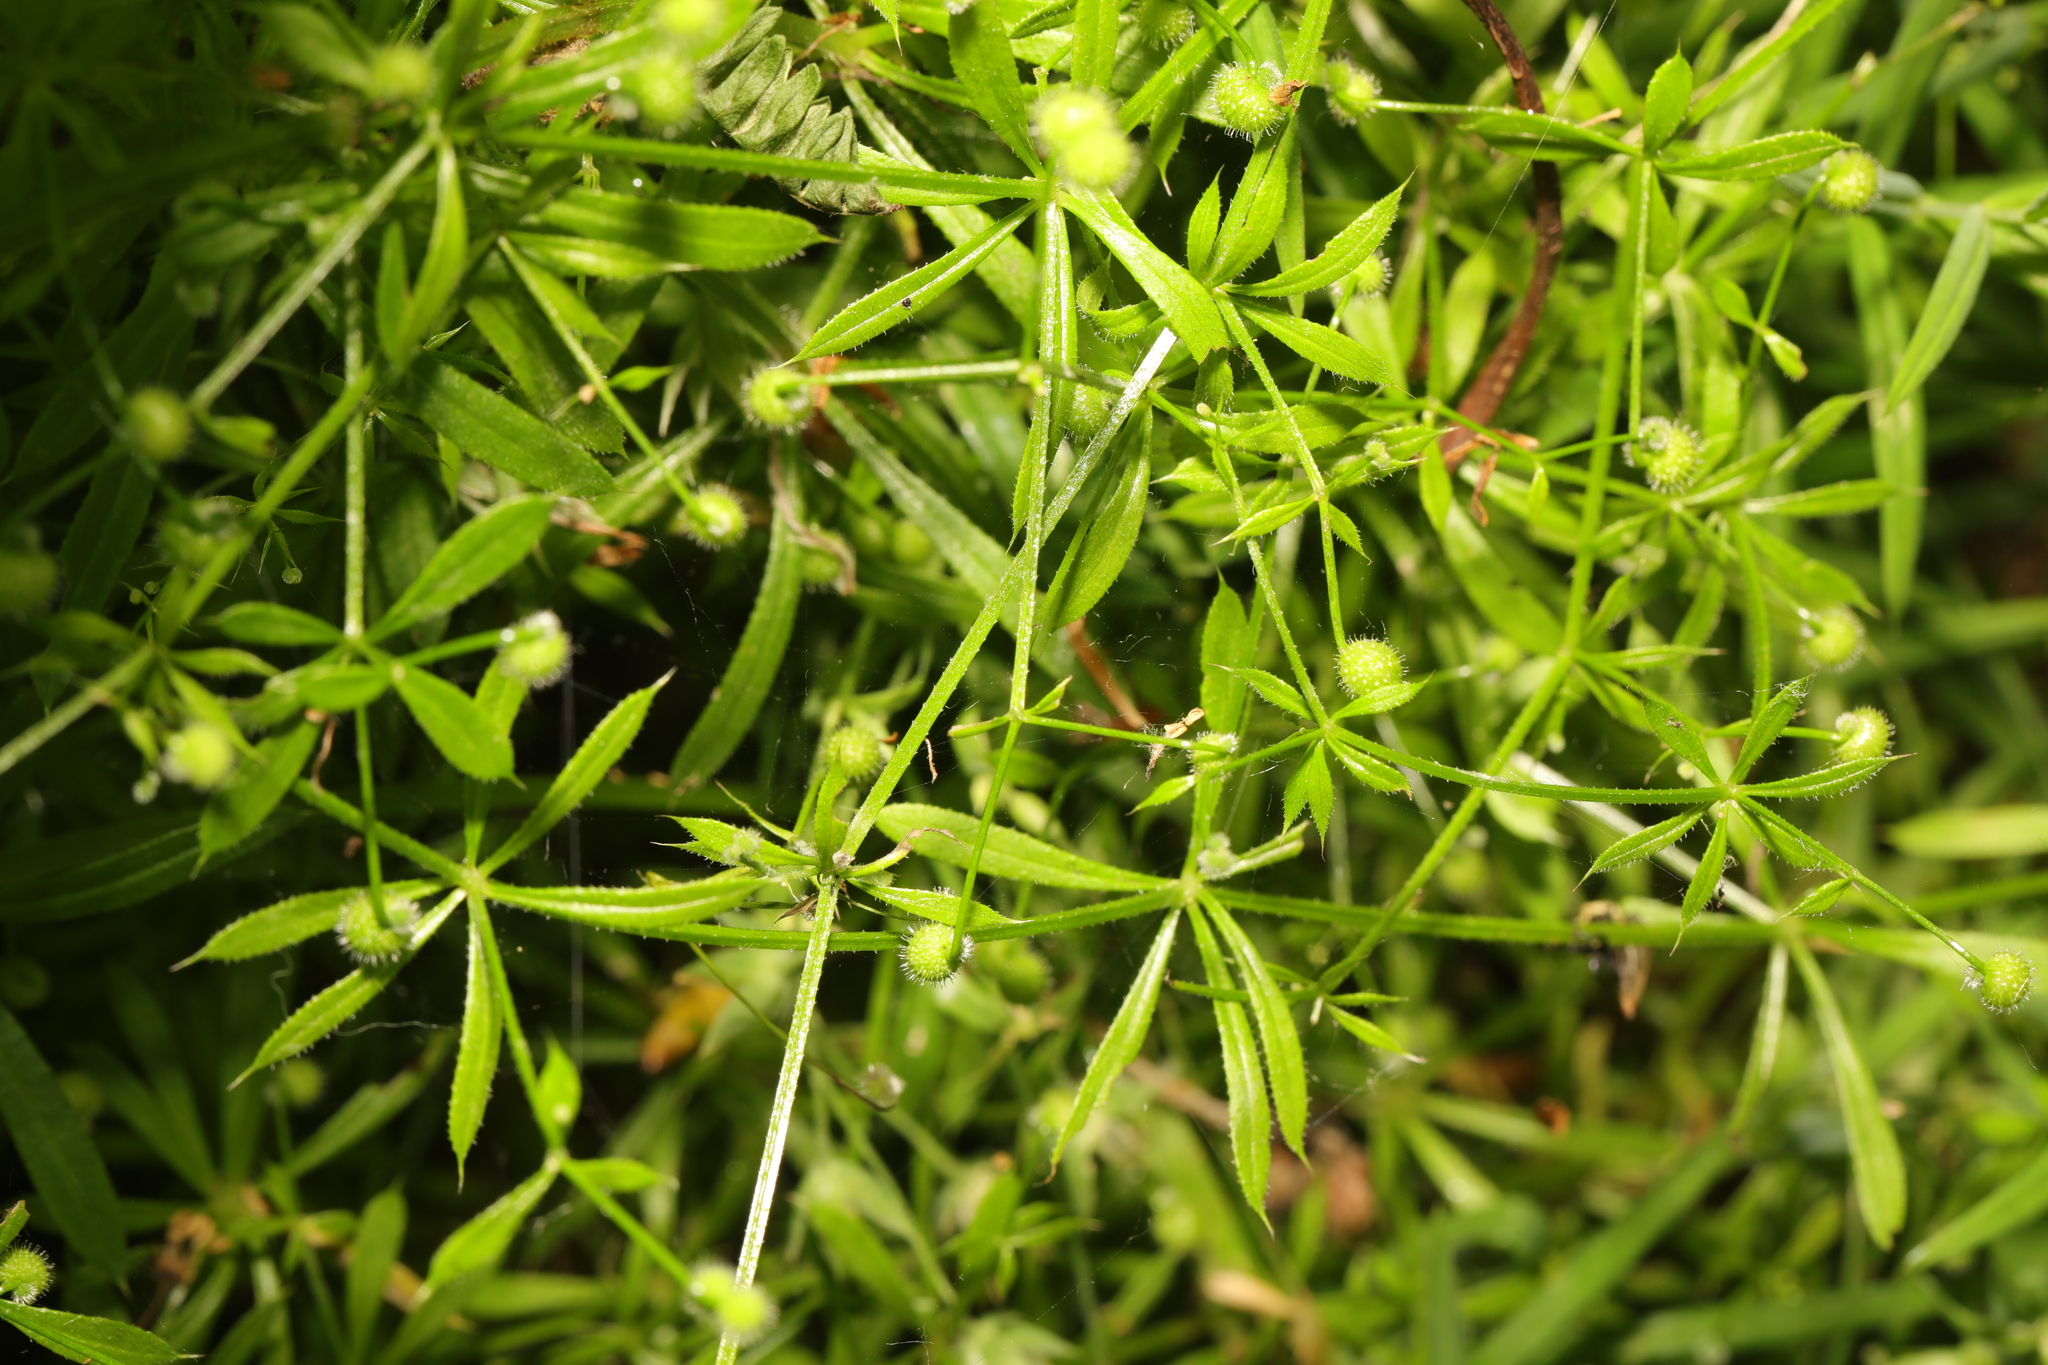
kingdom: Plantae
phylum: Tracheophyta
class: Magnoliopsida
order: Gentianales
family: Rubiaceae
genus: Galium
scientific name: Galium aparine
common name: Cleavers
